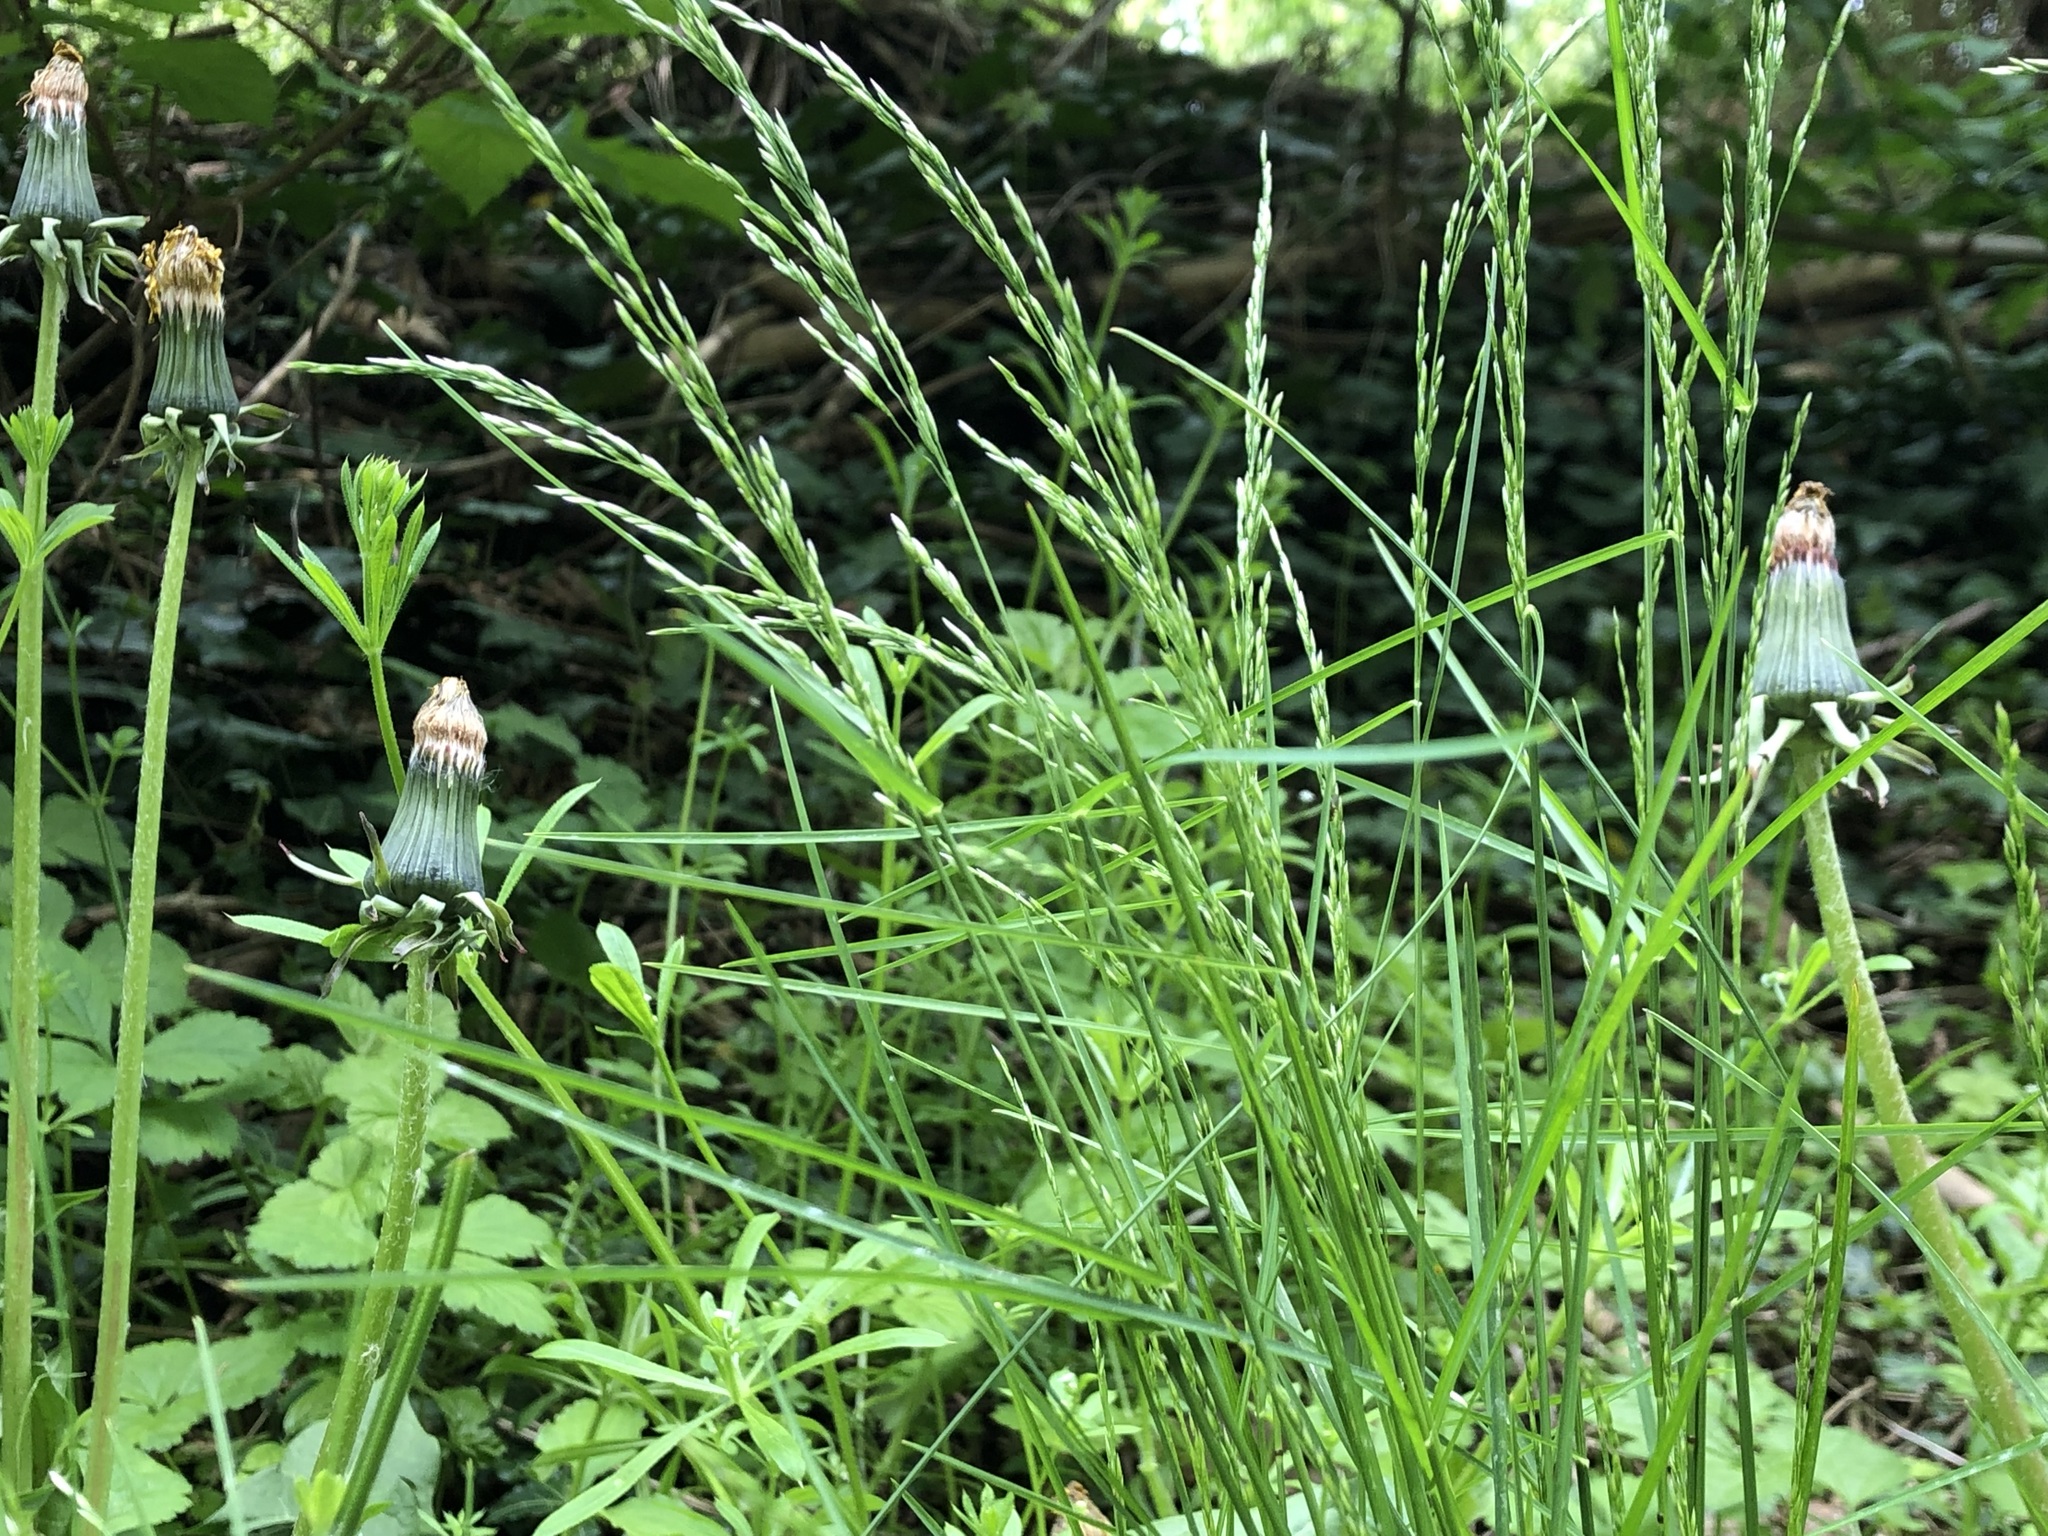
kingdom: Plantae
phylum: Tracheophyta
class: Liliopsida
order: Poales
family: Poaceae
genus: Poa
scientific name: Poa nemoralis
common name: Wood bluegrass
